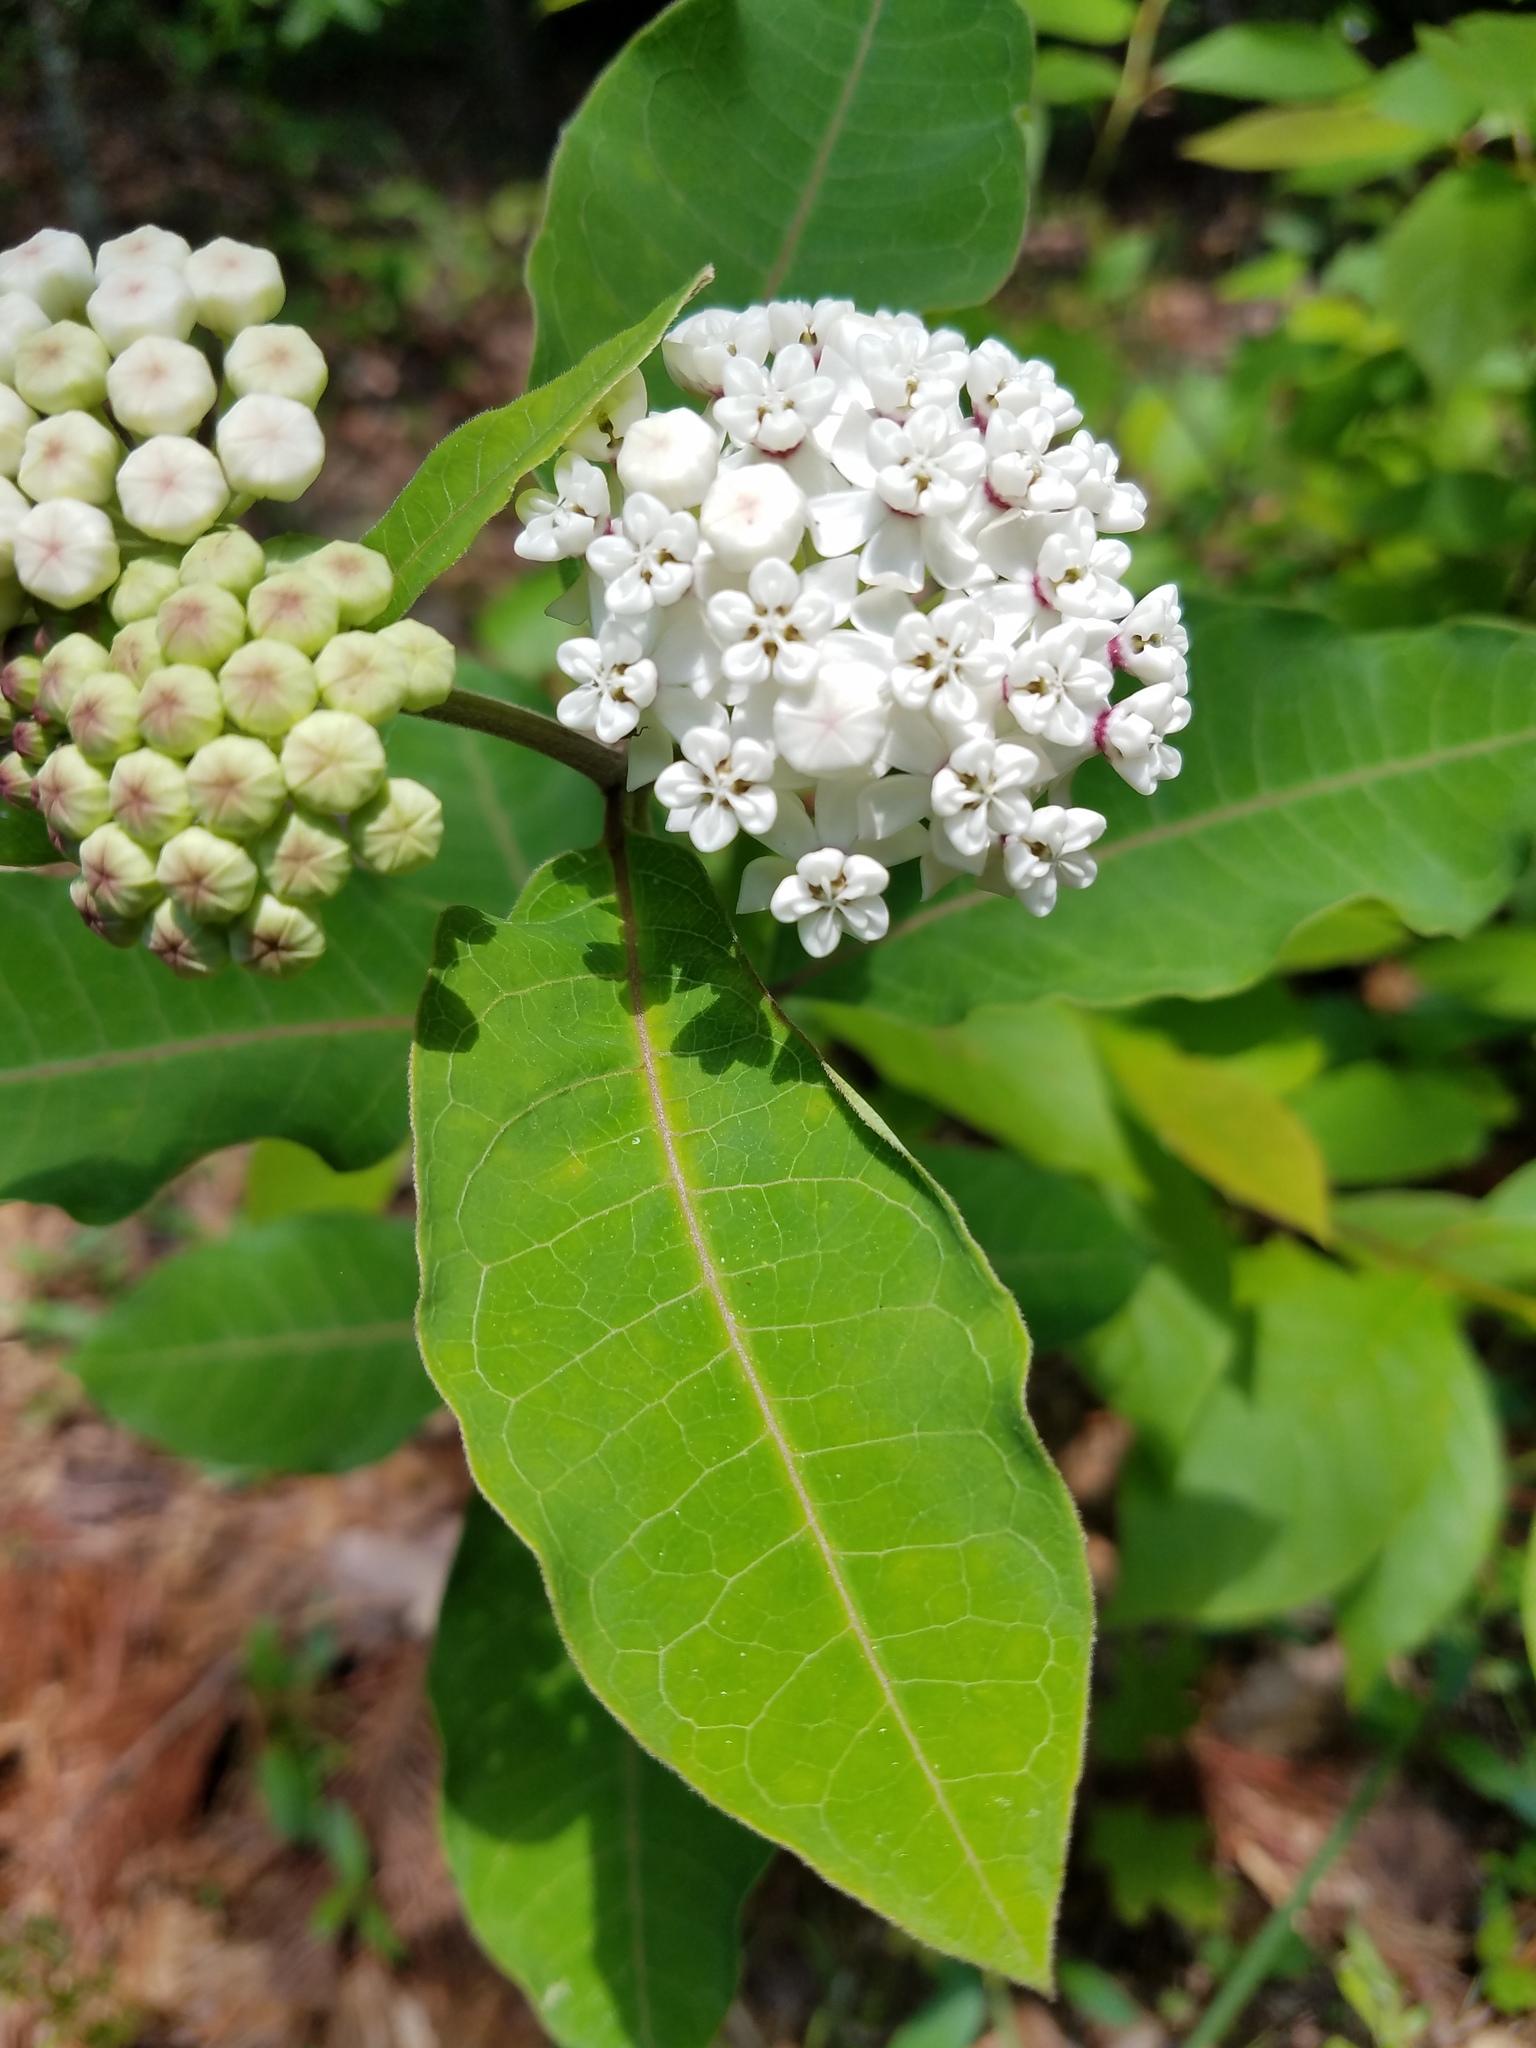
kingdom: Plantae
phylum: Tracheophyta
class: Magnoliopsida
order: Gentianales
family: Apocynaceae
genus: Asclepias
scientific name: Asclepias variegata
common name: Variegated milkweed
